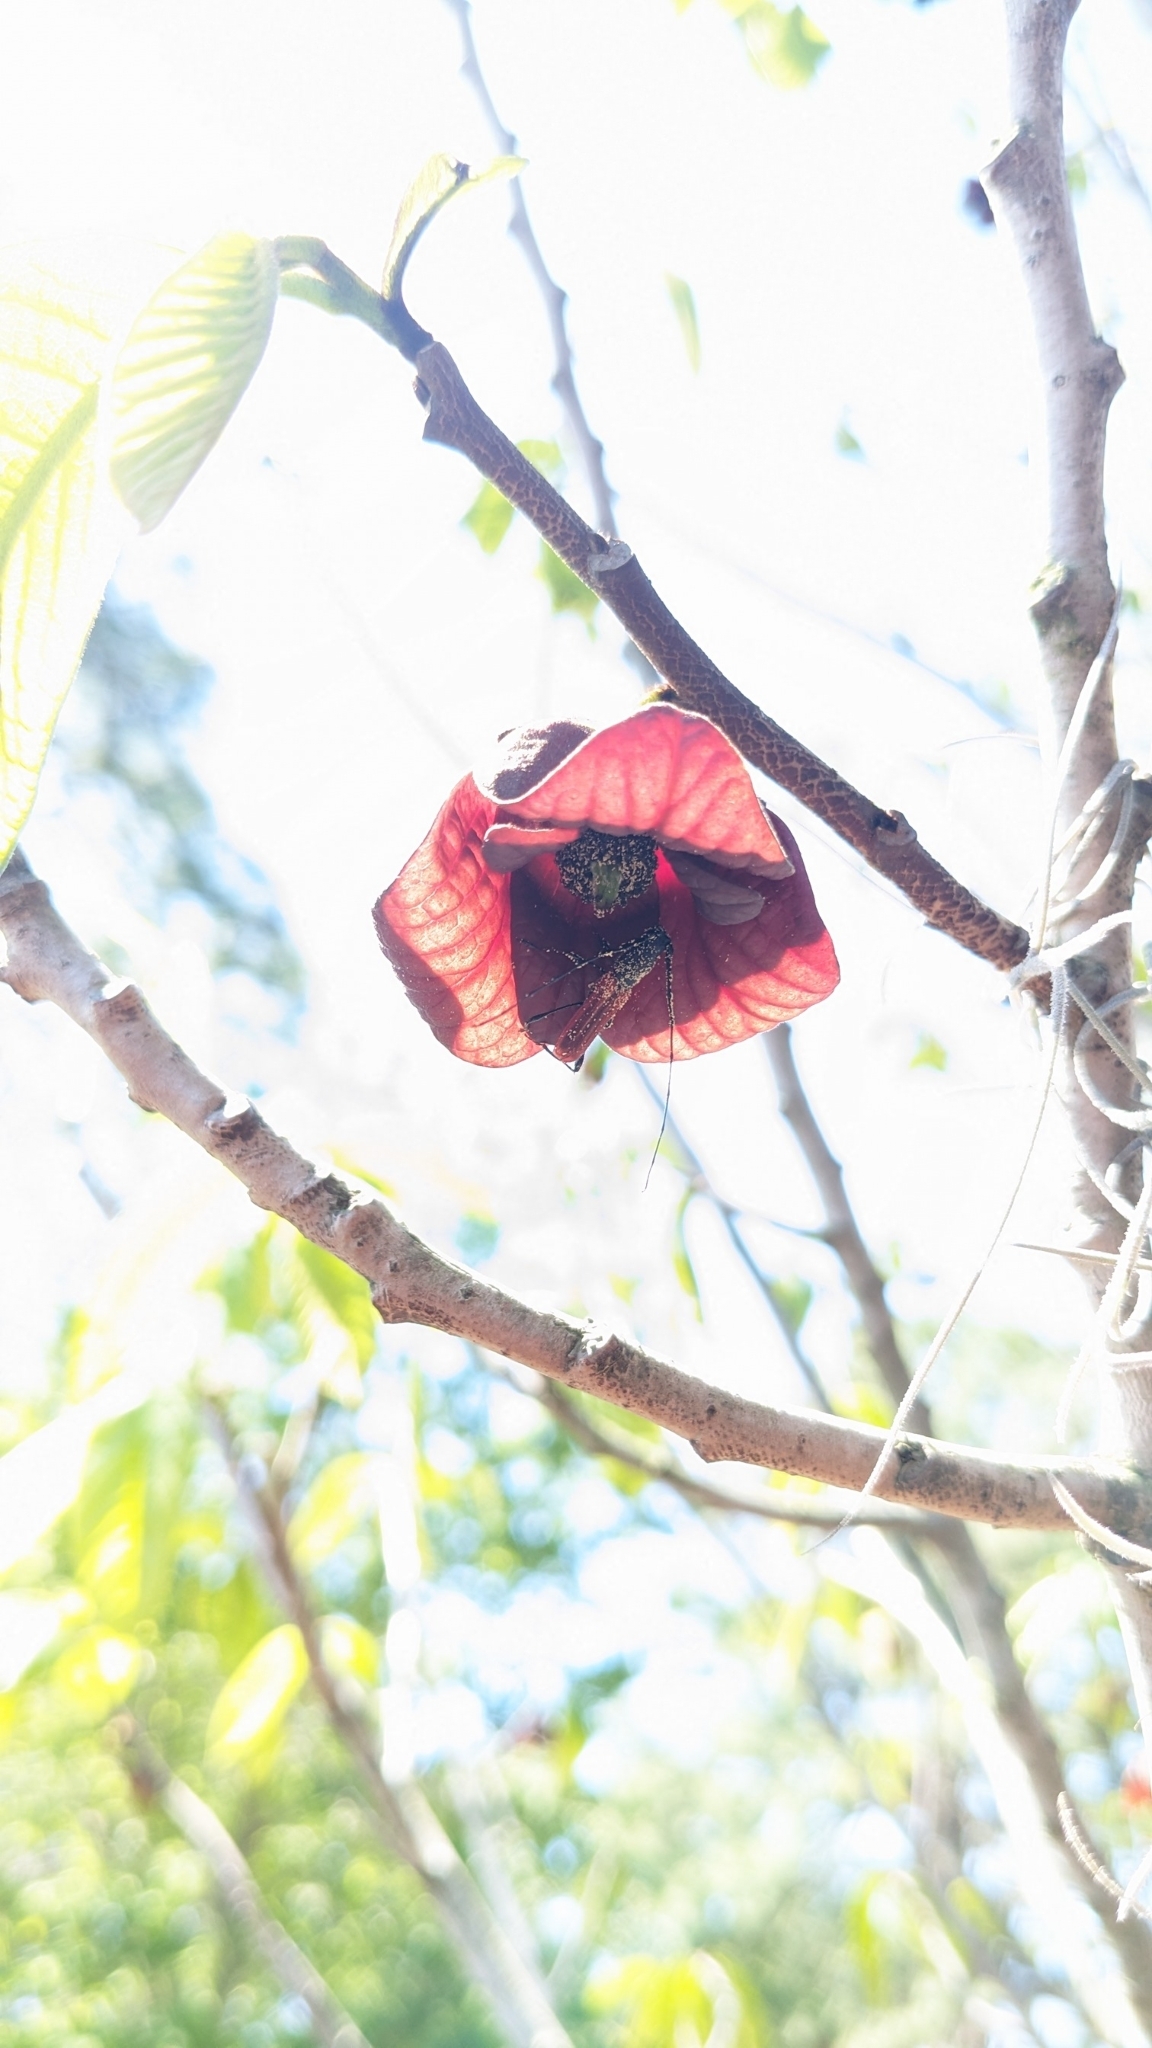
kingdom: Animalia
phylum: Arthropoda
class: Insecta
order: Coleoptera
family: Cerambycidae
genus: Ancylocera
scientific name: Ancylocera bicolor
